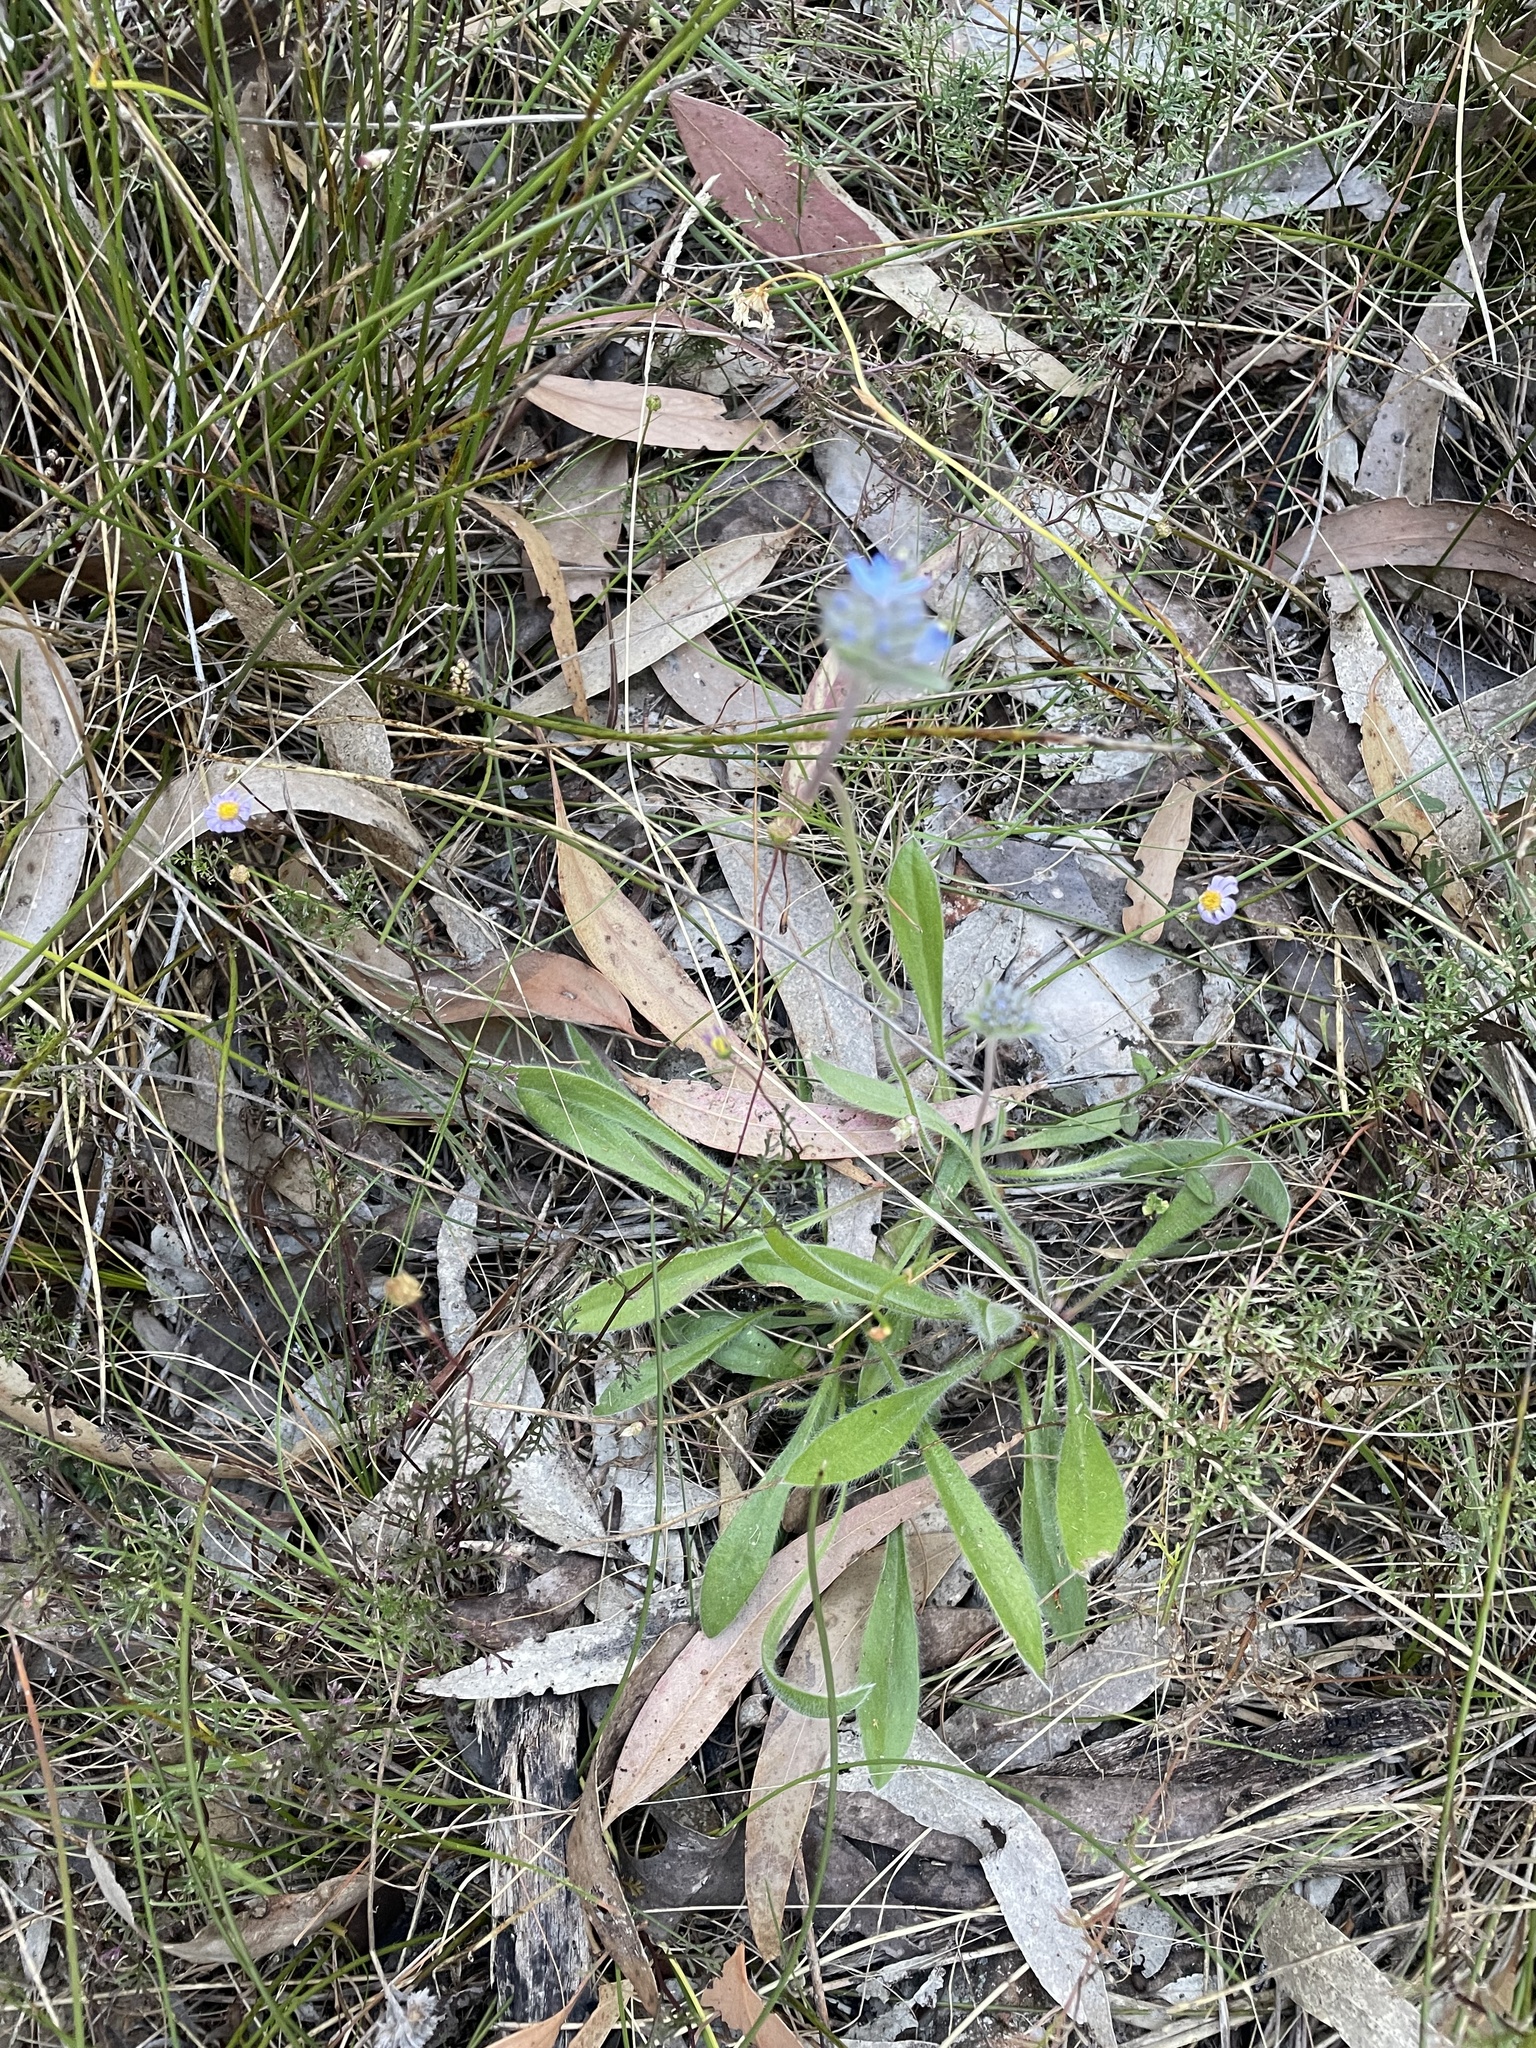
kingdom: Plantae
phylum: Tracheophyta
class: Magnoliopsida
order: Asterales
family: Goodeniaceae
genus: Brunonia
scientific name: Brunonia australis
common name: Blue pincushion
